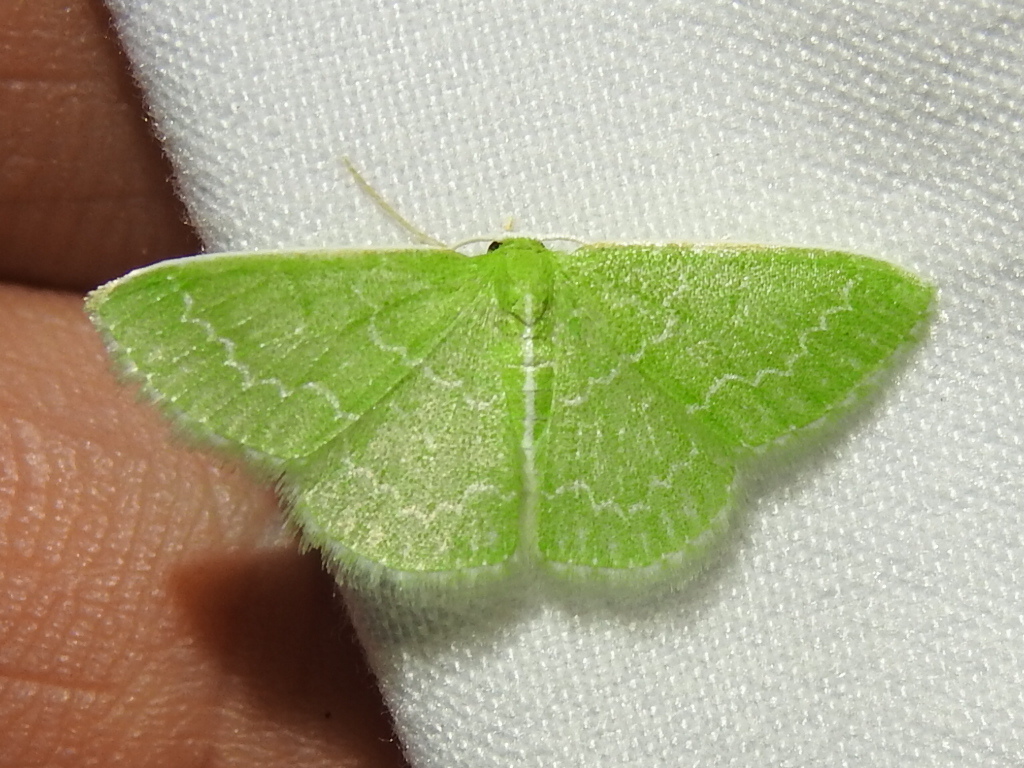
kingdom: Animalia
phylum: Arthropoda
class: Insecta
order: Lepidoptera
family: Geometridae
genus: Synchlora
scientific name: Synchlora frondaria
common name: Southern emerald
